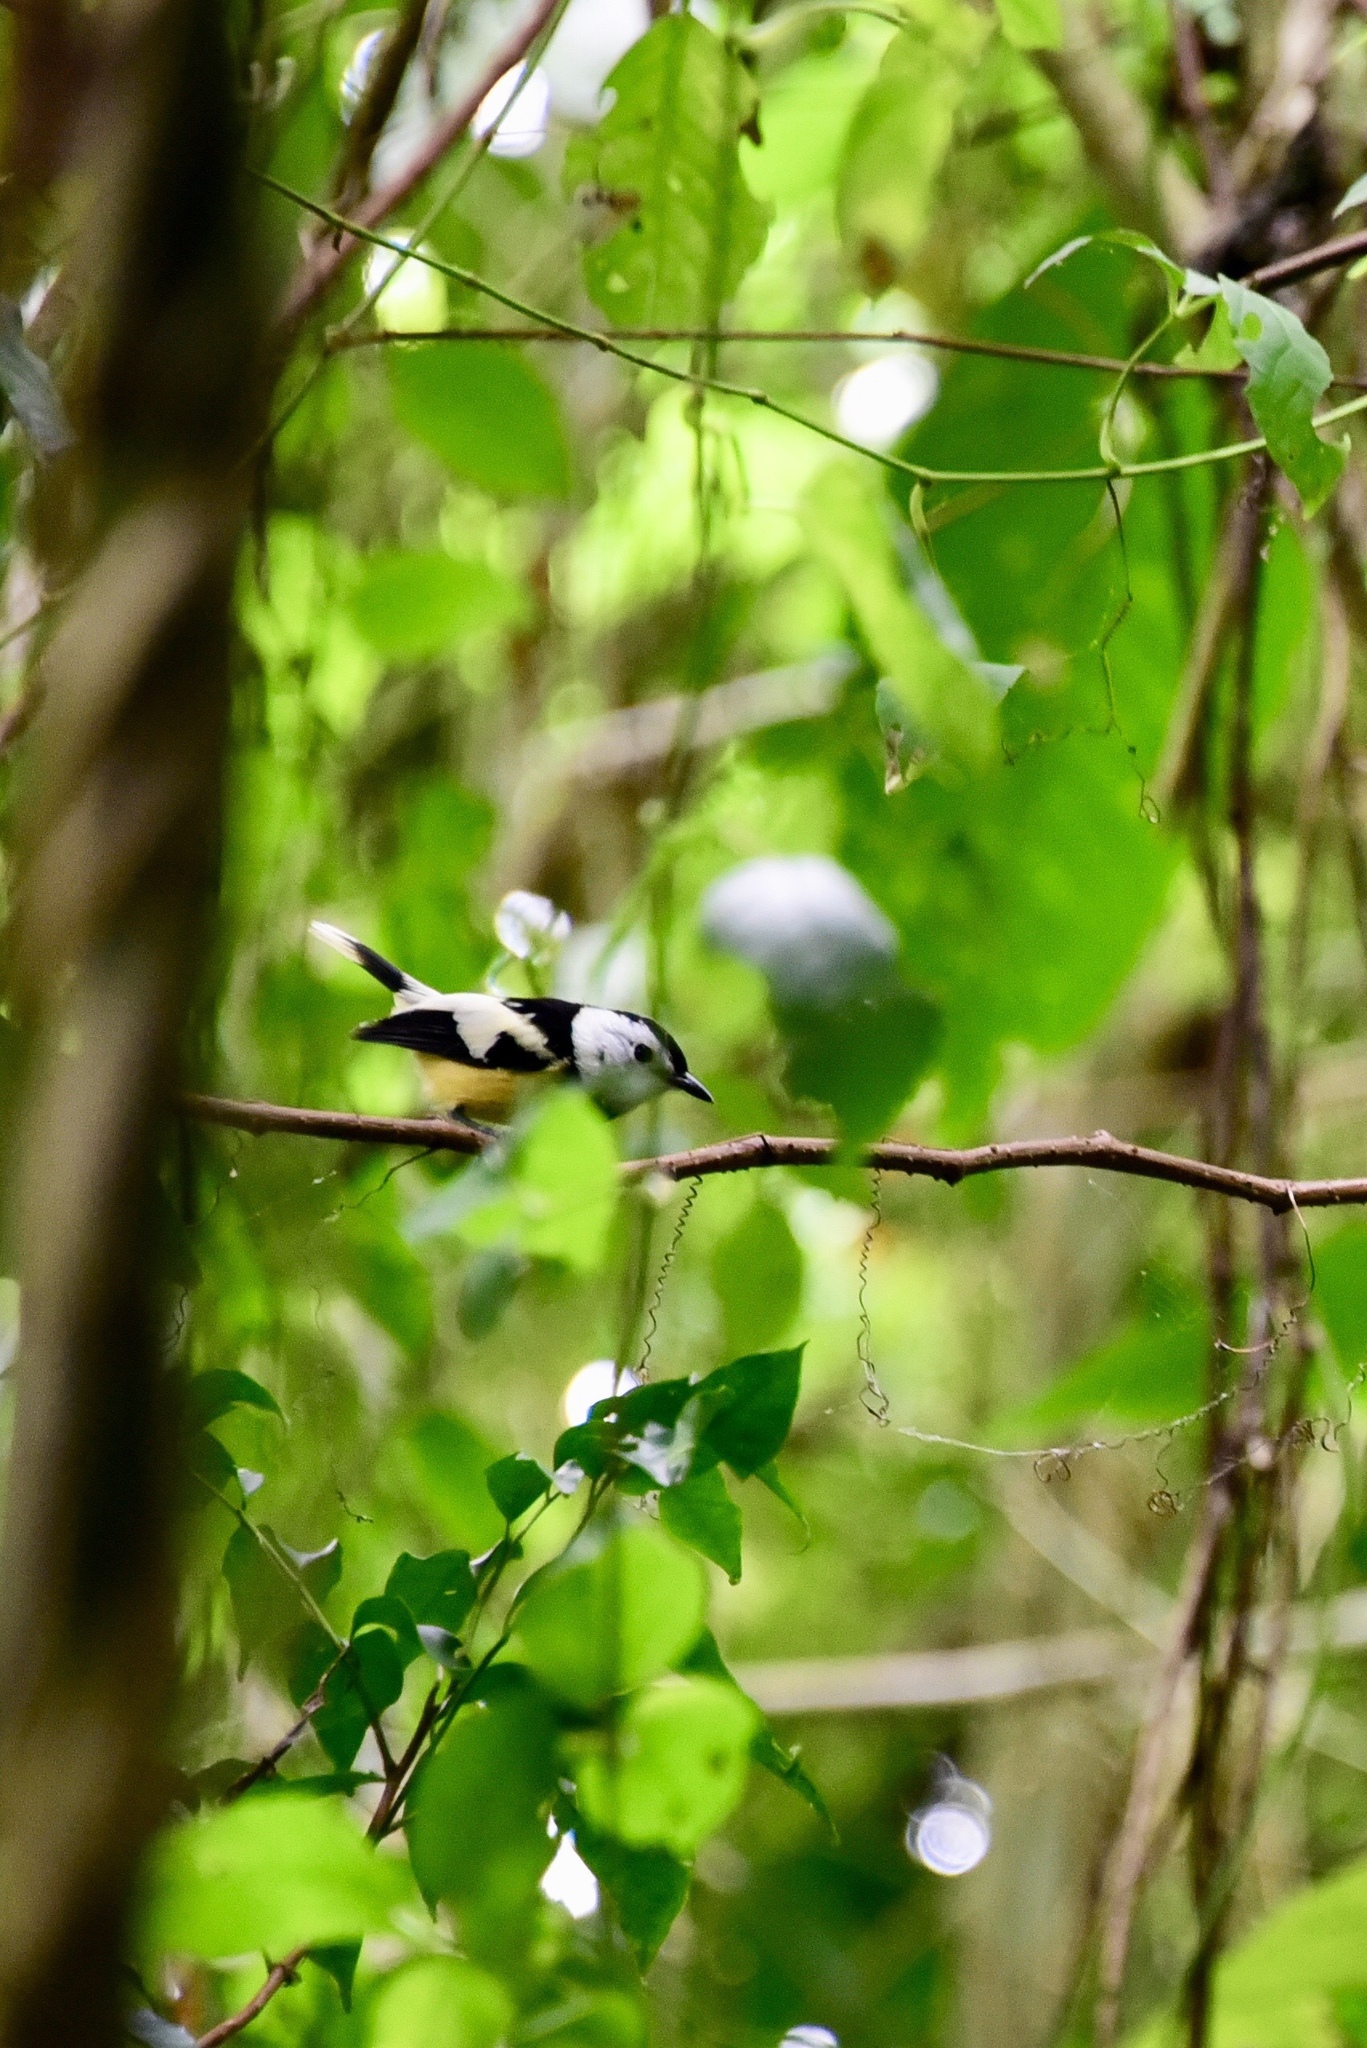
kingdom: Animalia
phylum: Chordata
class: Aves
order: Passeriformes
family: Monarchidae
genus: Neolalage
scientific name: Neolalage banksiana
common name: Buff-bellied monarch
